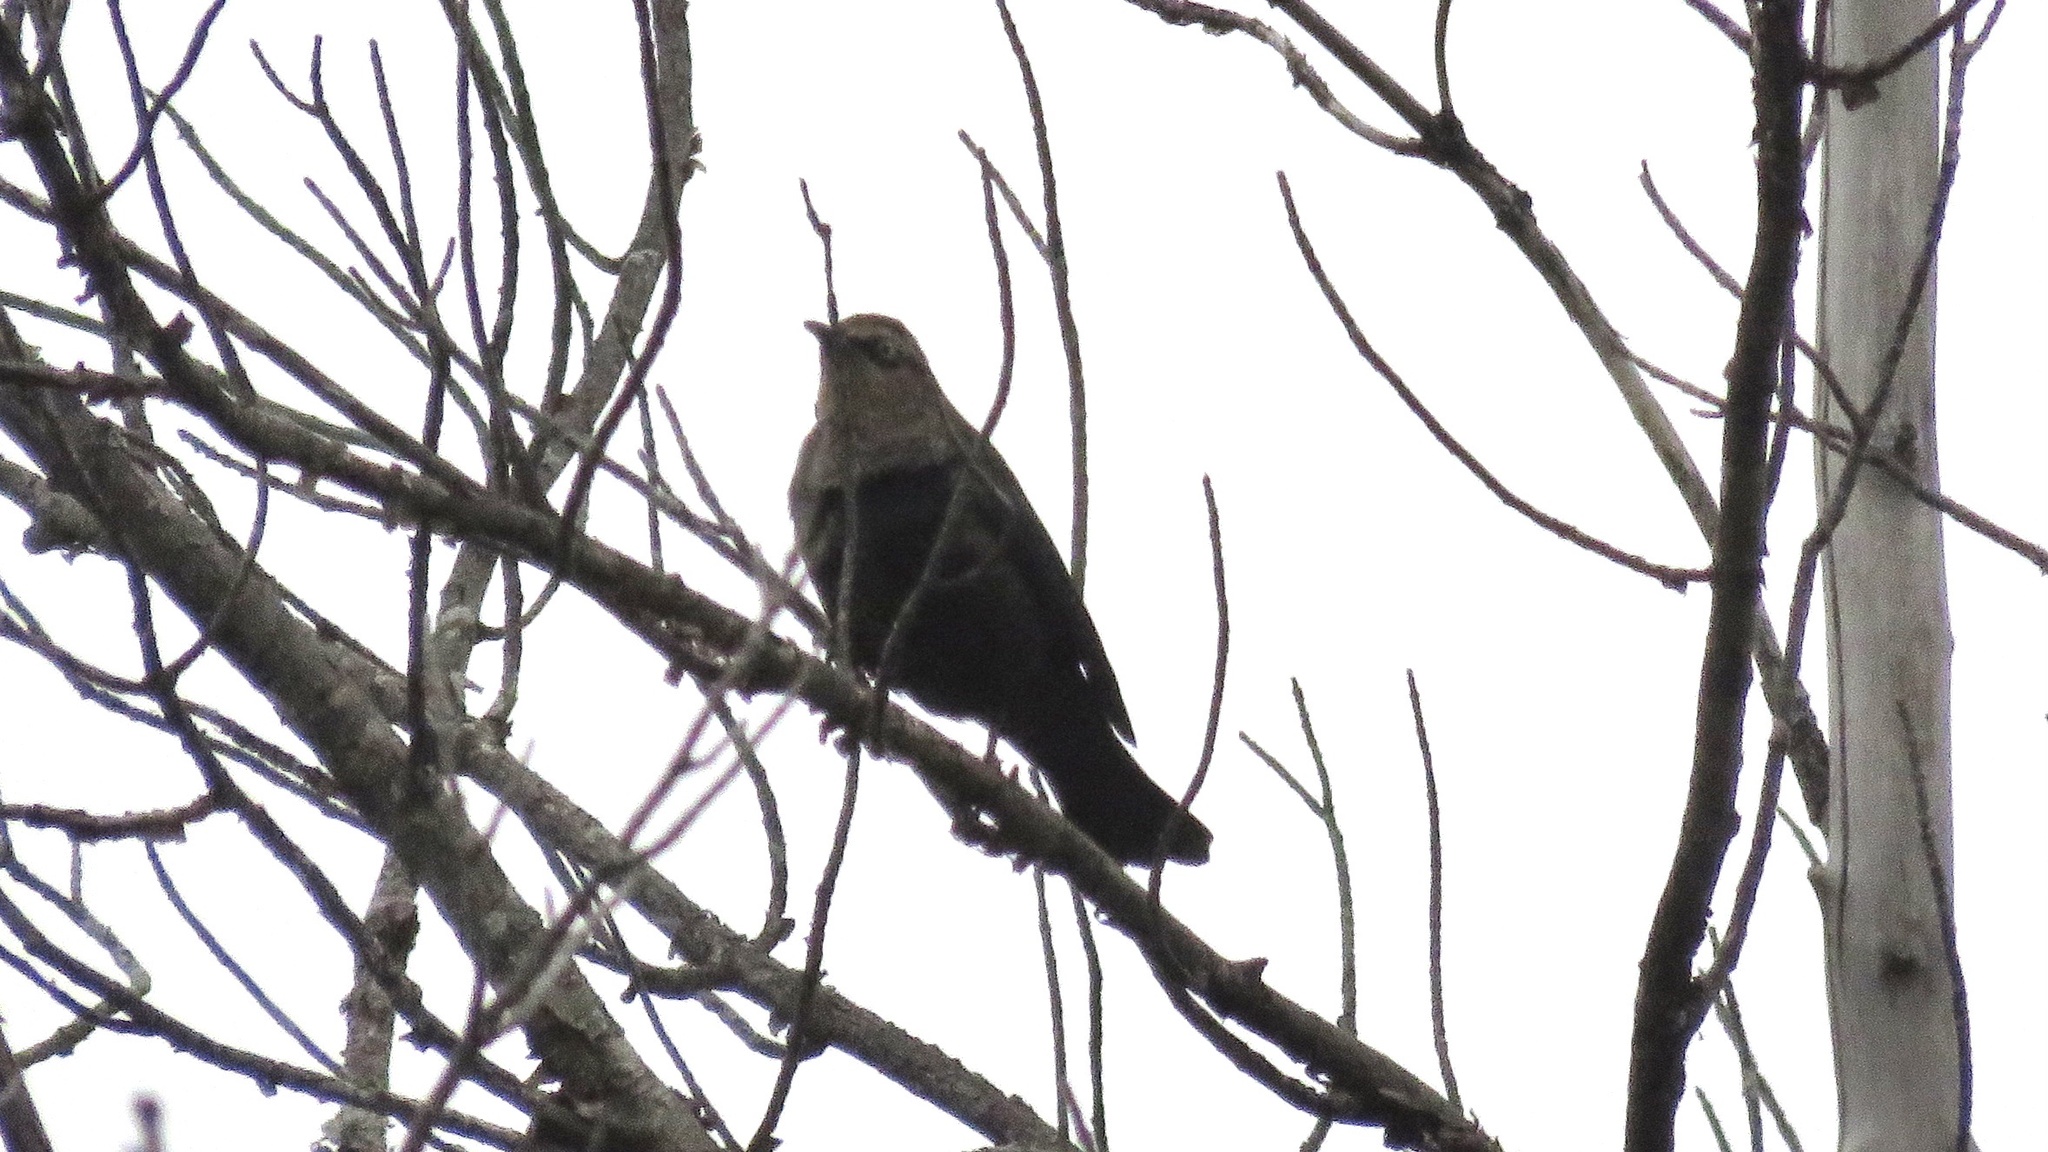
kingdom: Animalia
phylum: Chordata
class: Aves
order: Passeriformes
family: Icteridae
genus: Euphagus
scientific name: Euphagus carolinus
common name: Rusty blackbird
